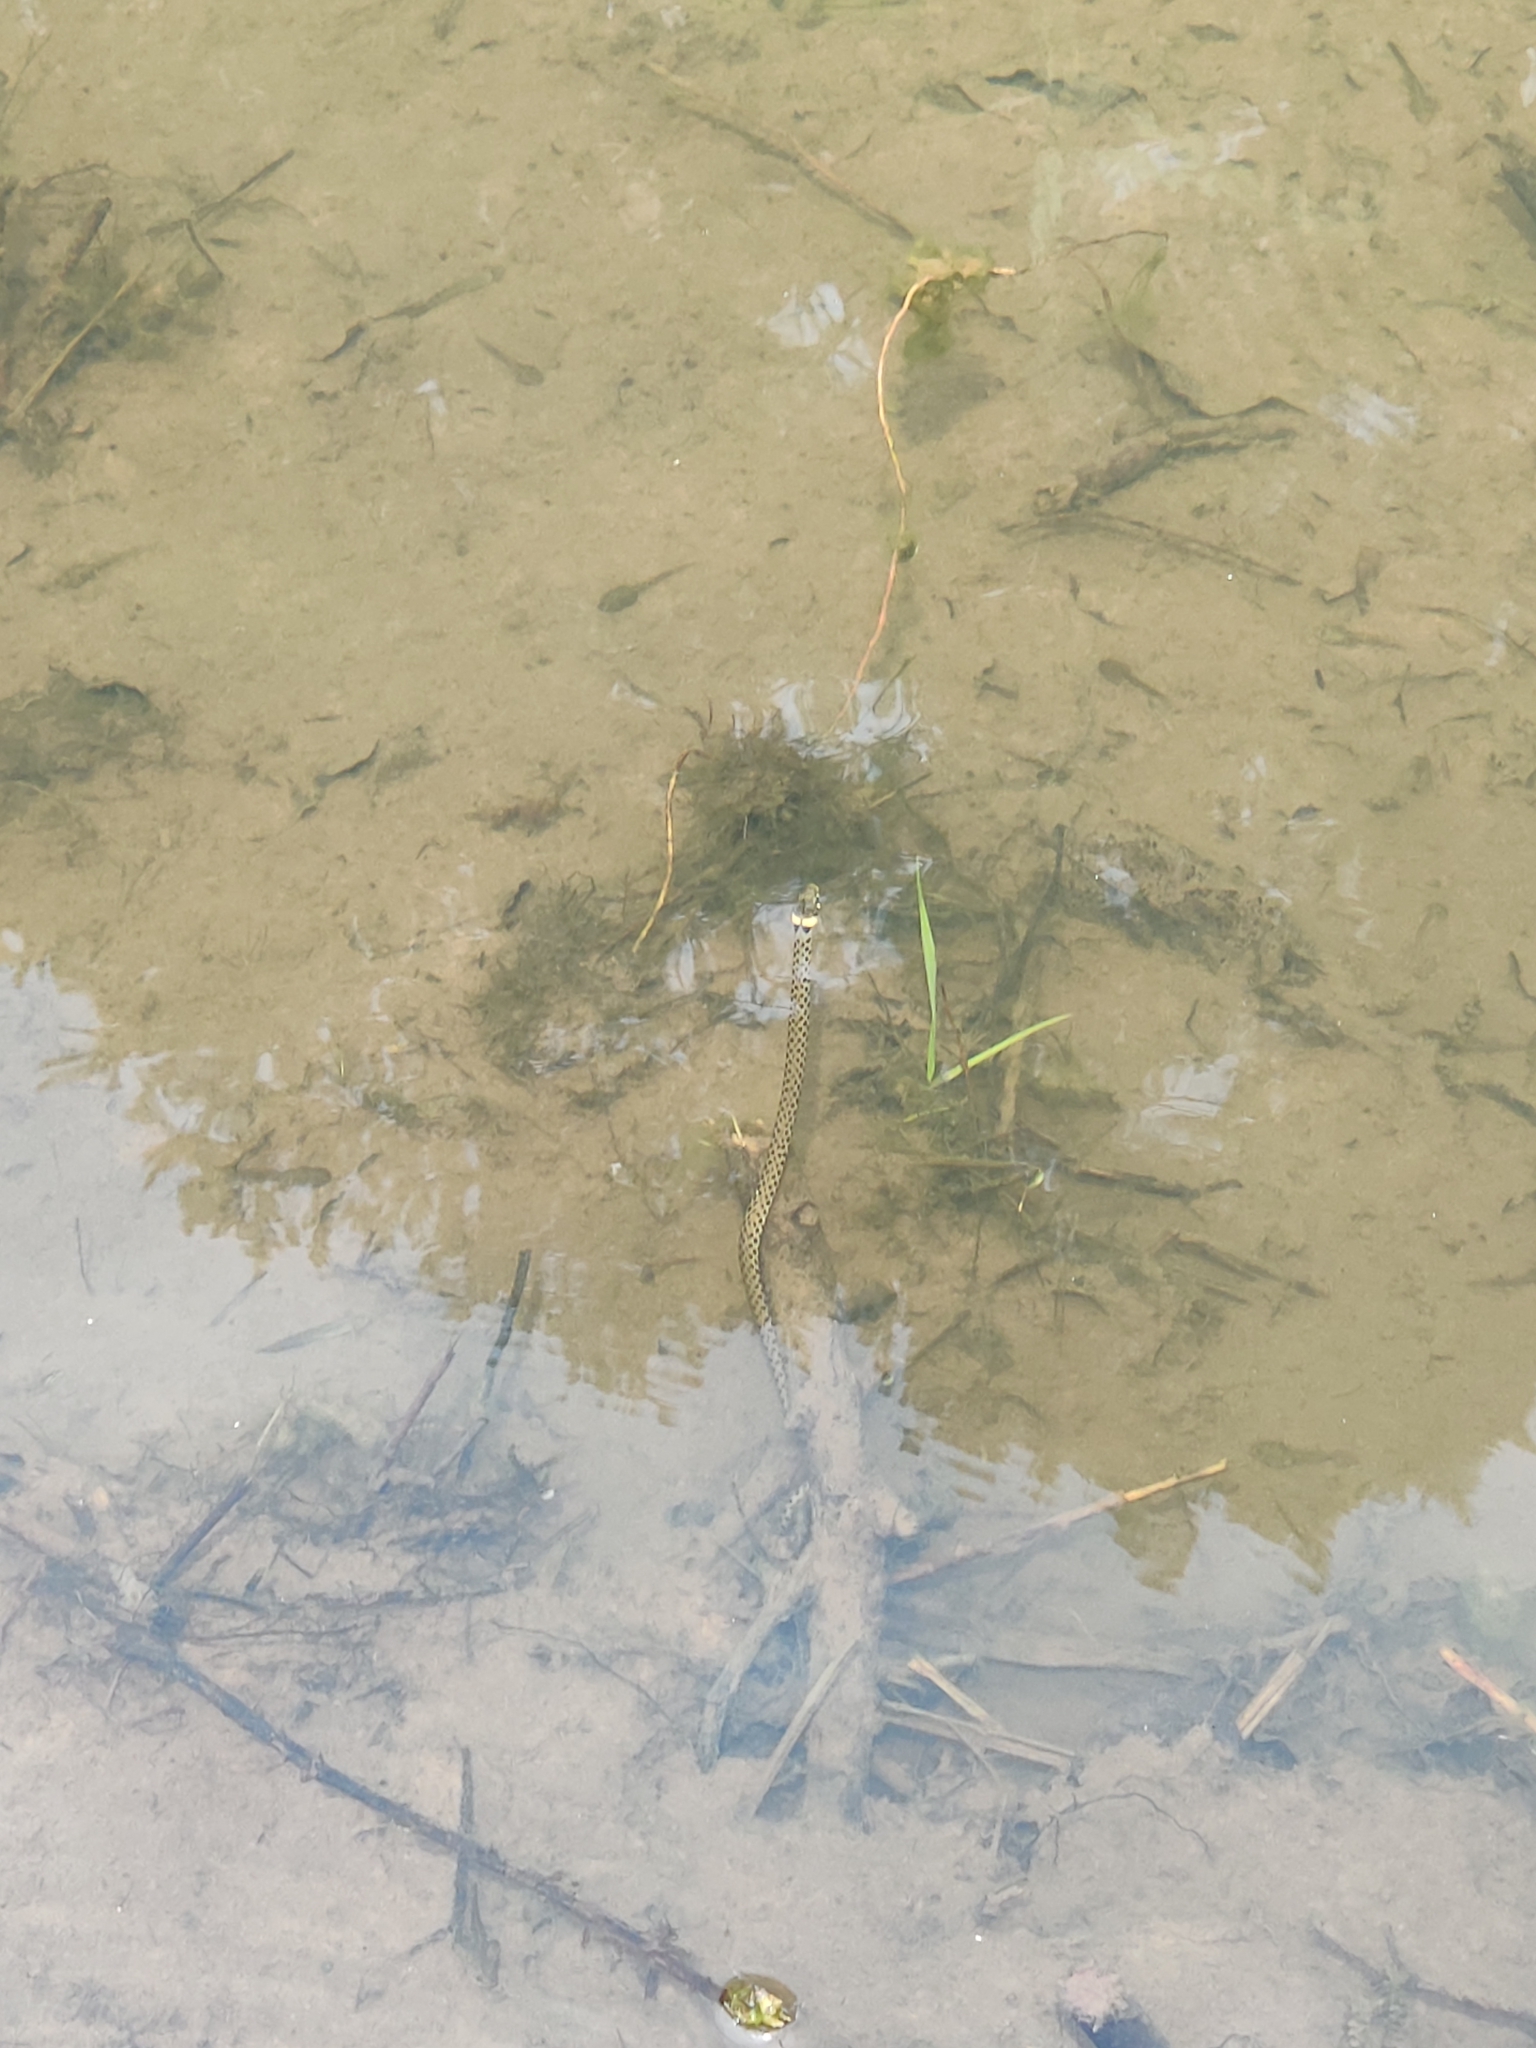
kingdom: Animalia
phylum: Chordata
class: Squamata
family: Colubridae
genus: Natrix
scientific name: Natrix helvetica
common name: Banded grass snake
